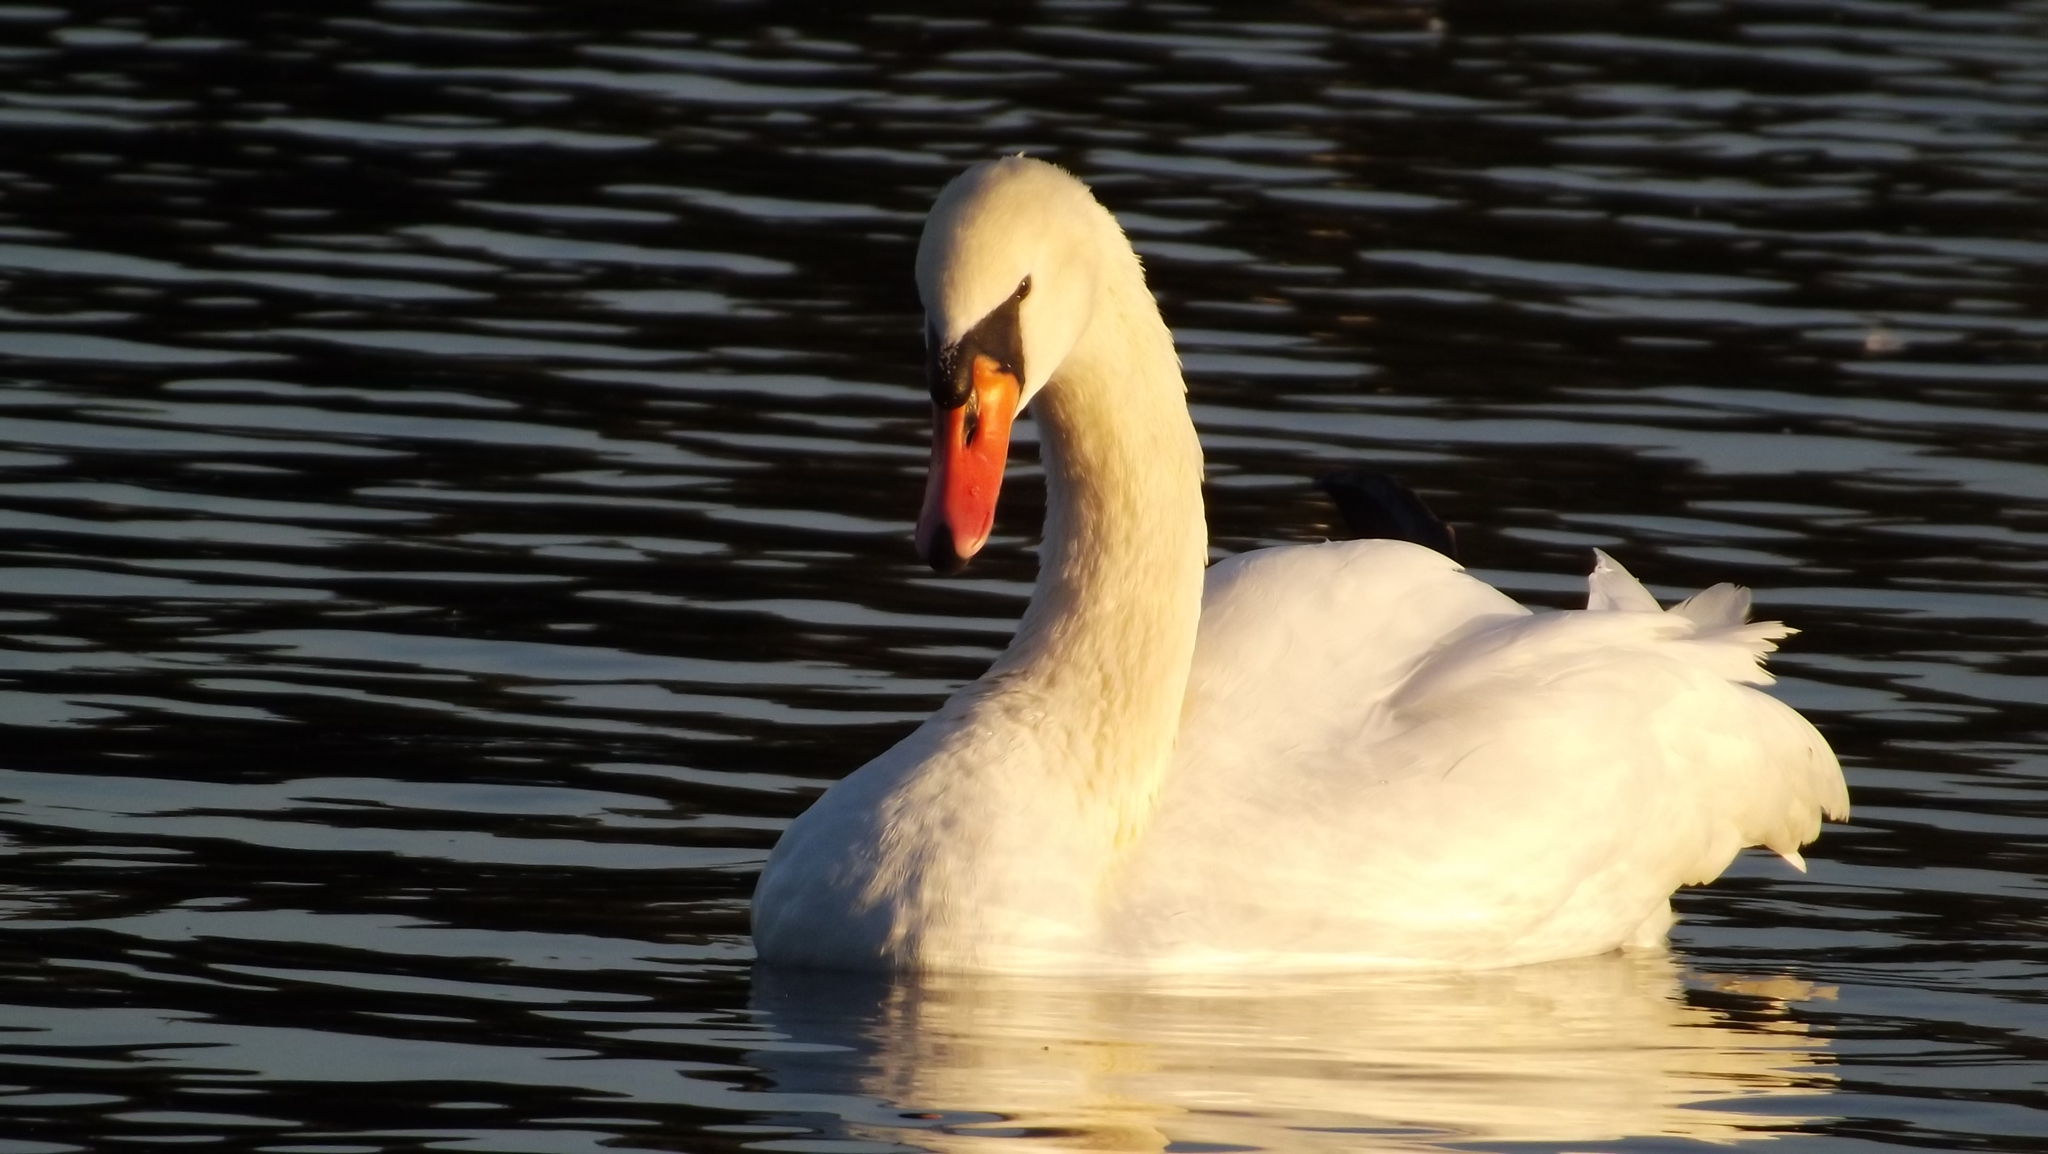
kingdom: Animalia
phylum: Chordata
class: Aves
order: Anseriformes
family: Anatidae
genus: Cygnus
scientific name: Cygnus olor
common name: Mute swan
